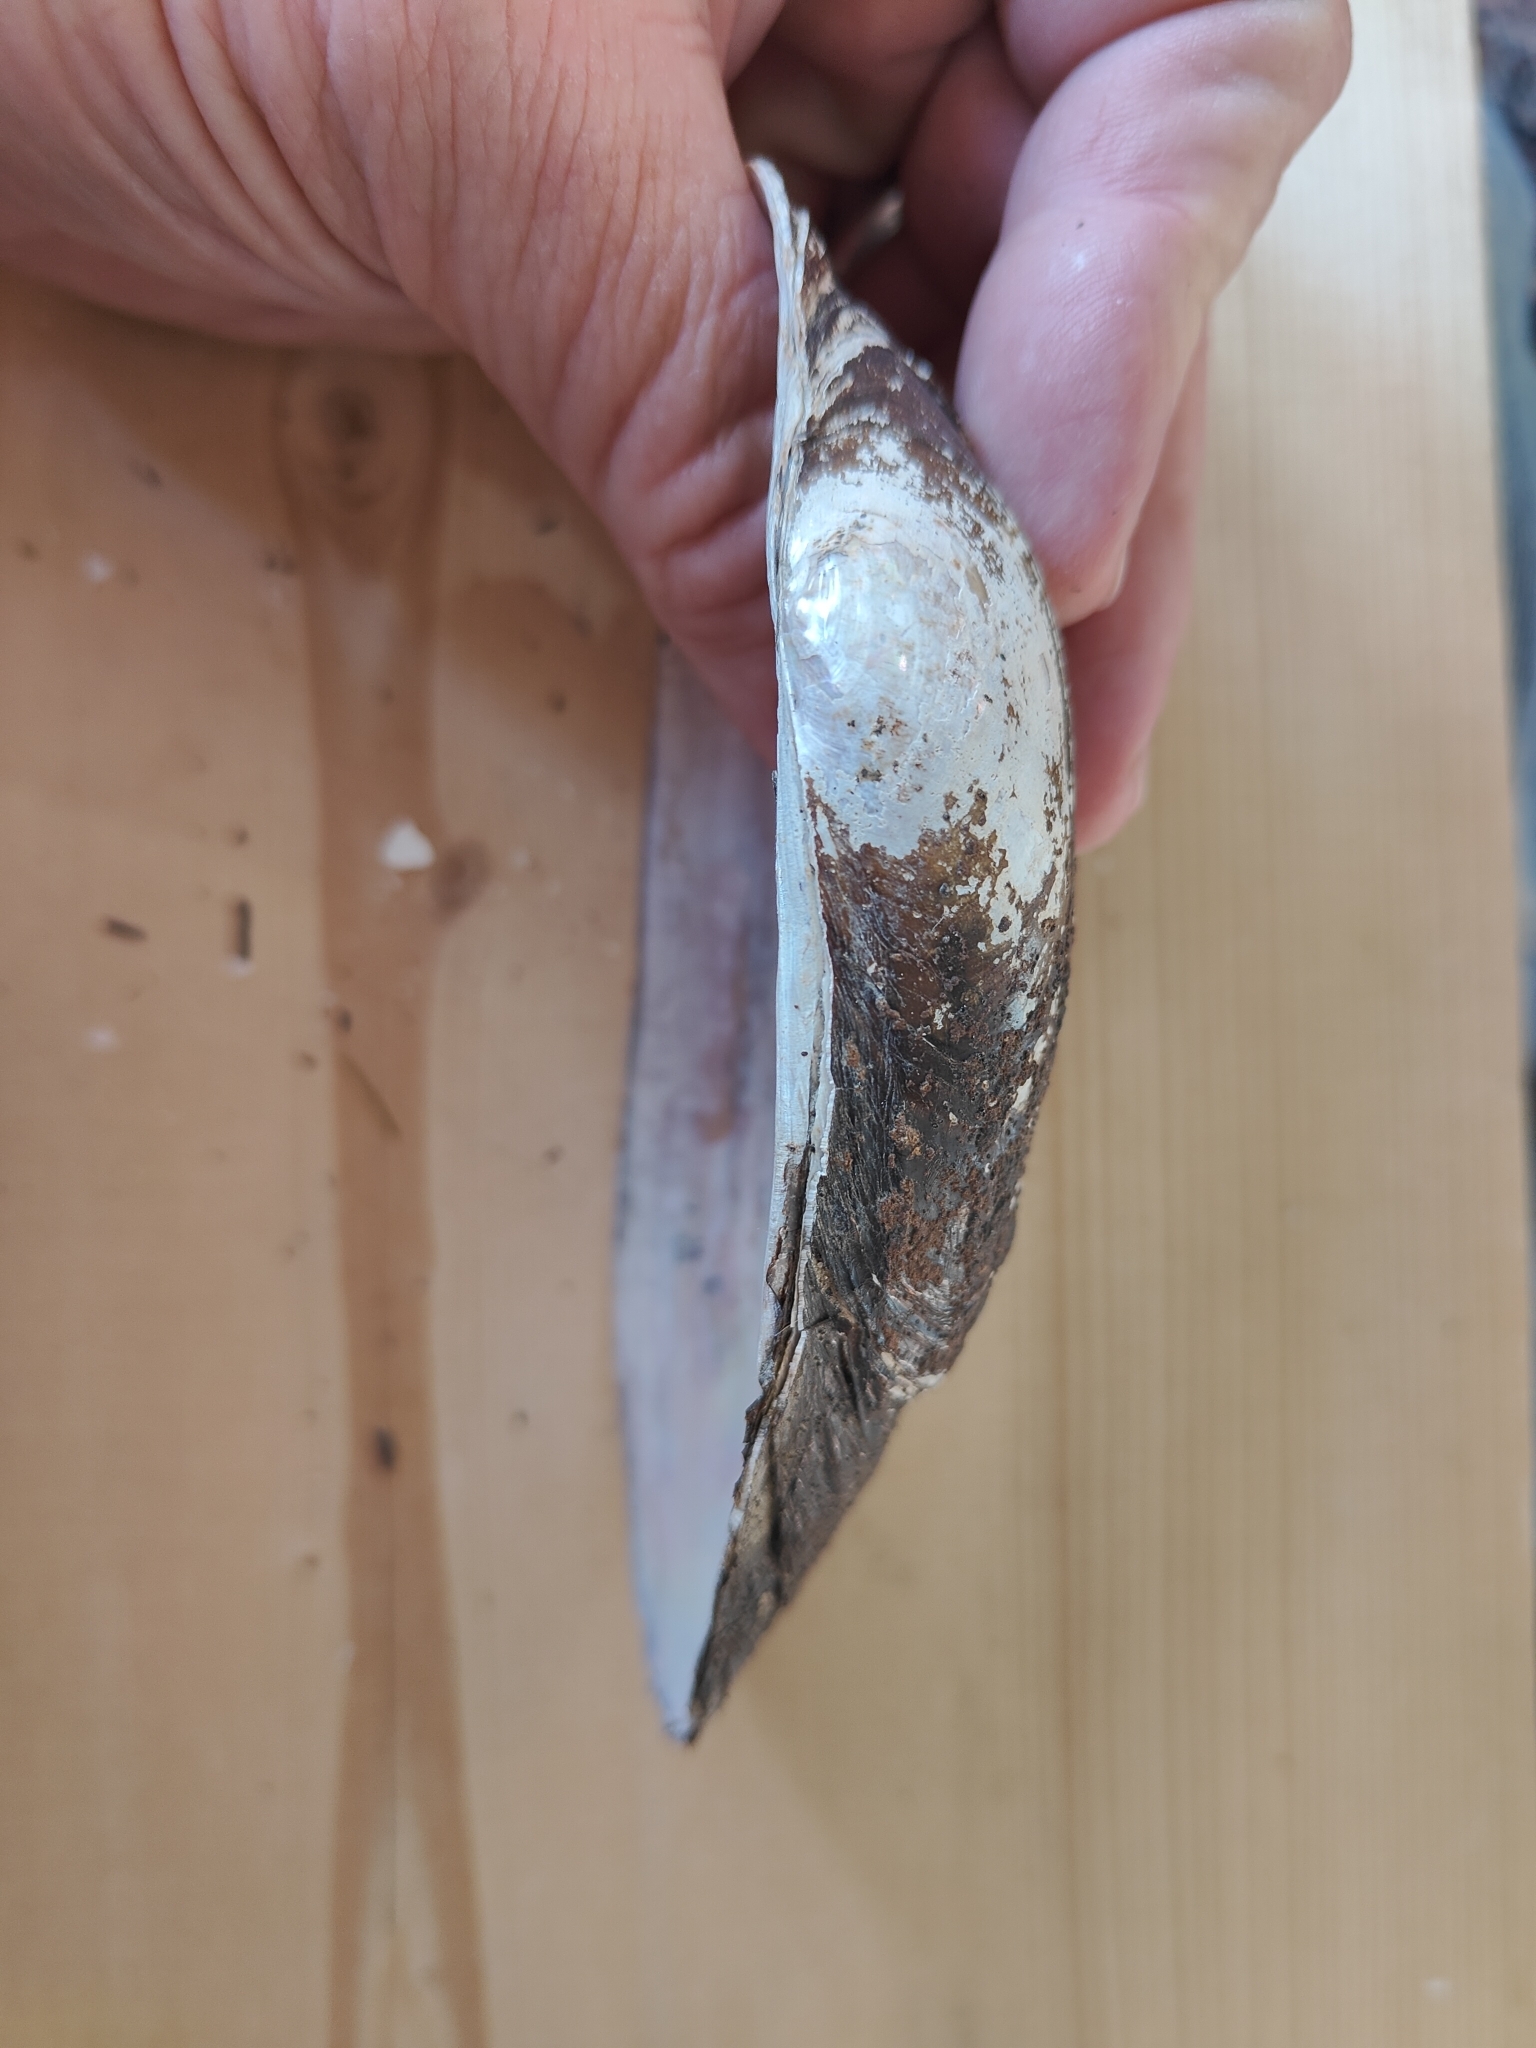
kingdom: Animalia
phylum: Mollusca
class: Bivalvia
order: Unionida
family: Unionidae
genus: Pyganodon
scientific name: Pyganodon grandis
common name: Giant floater
